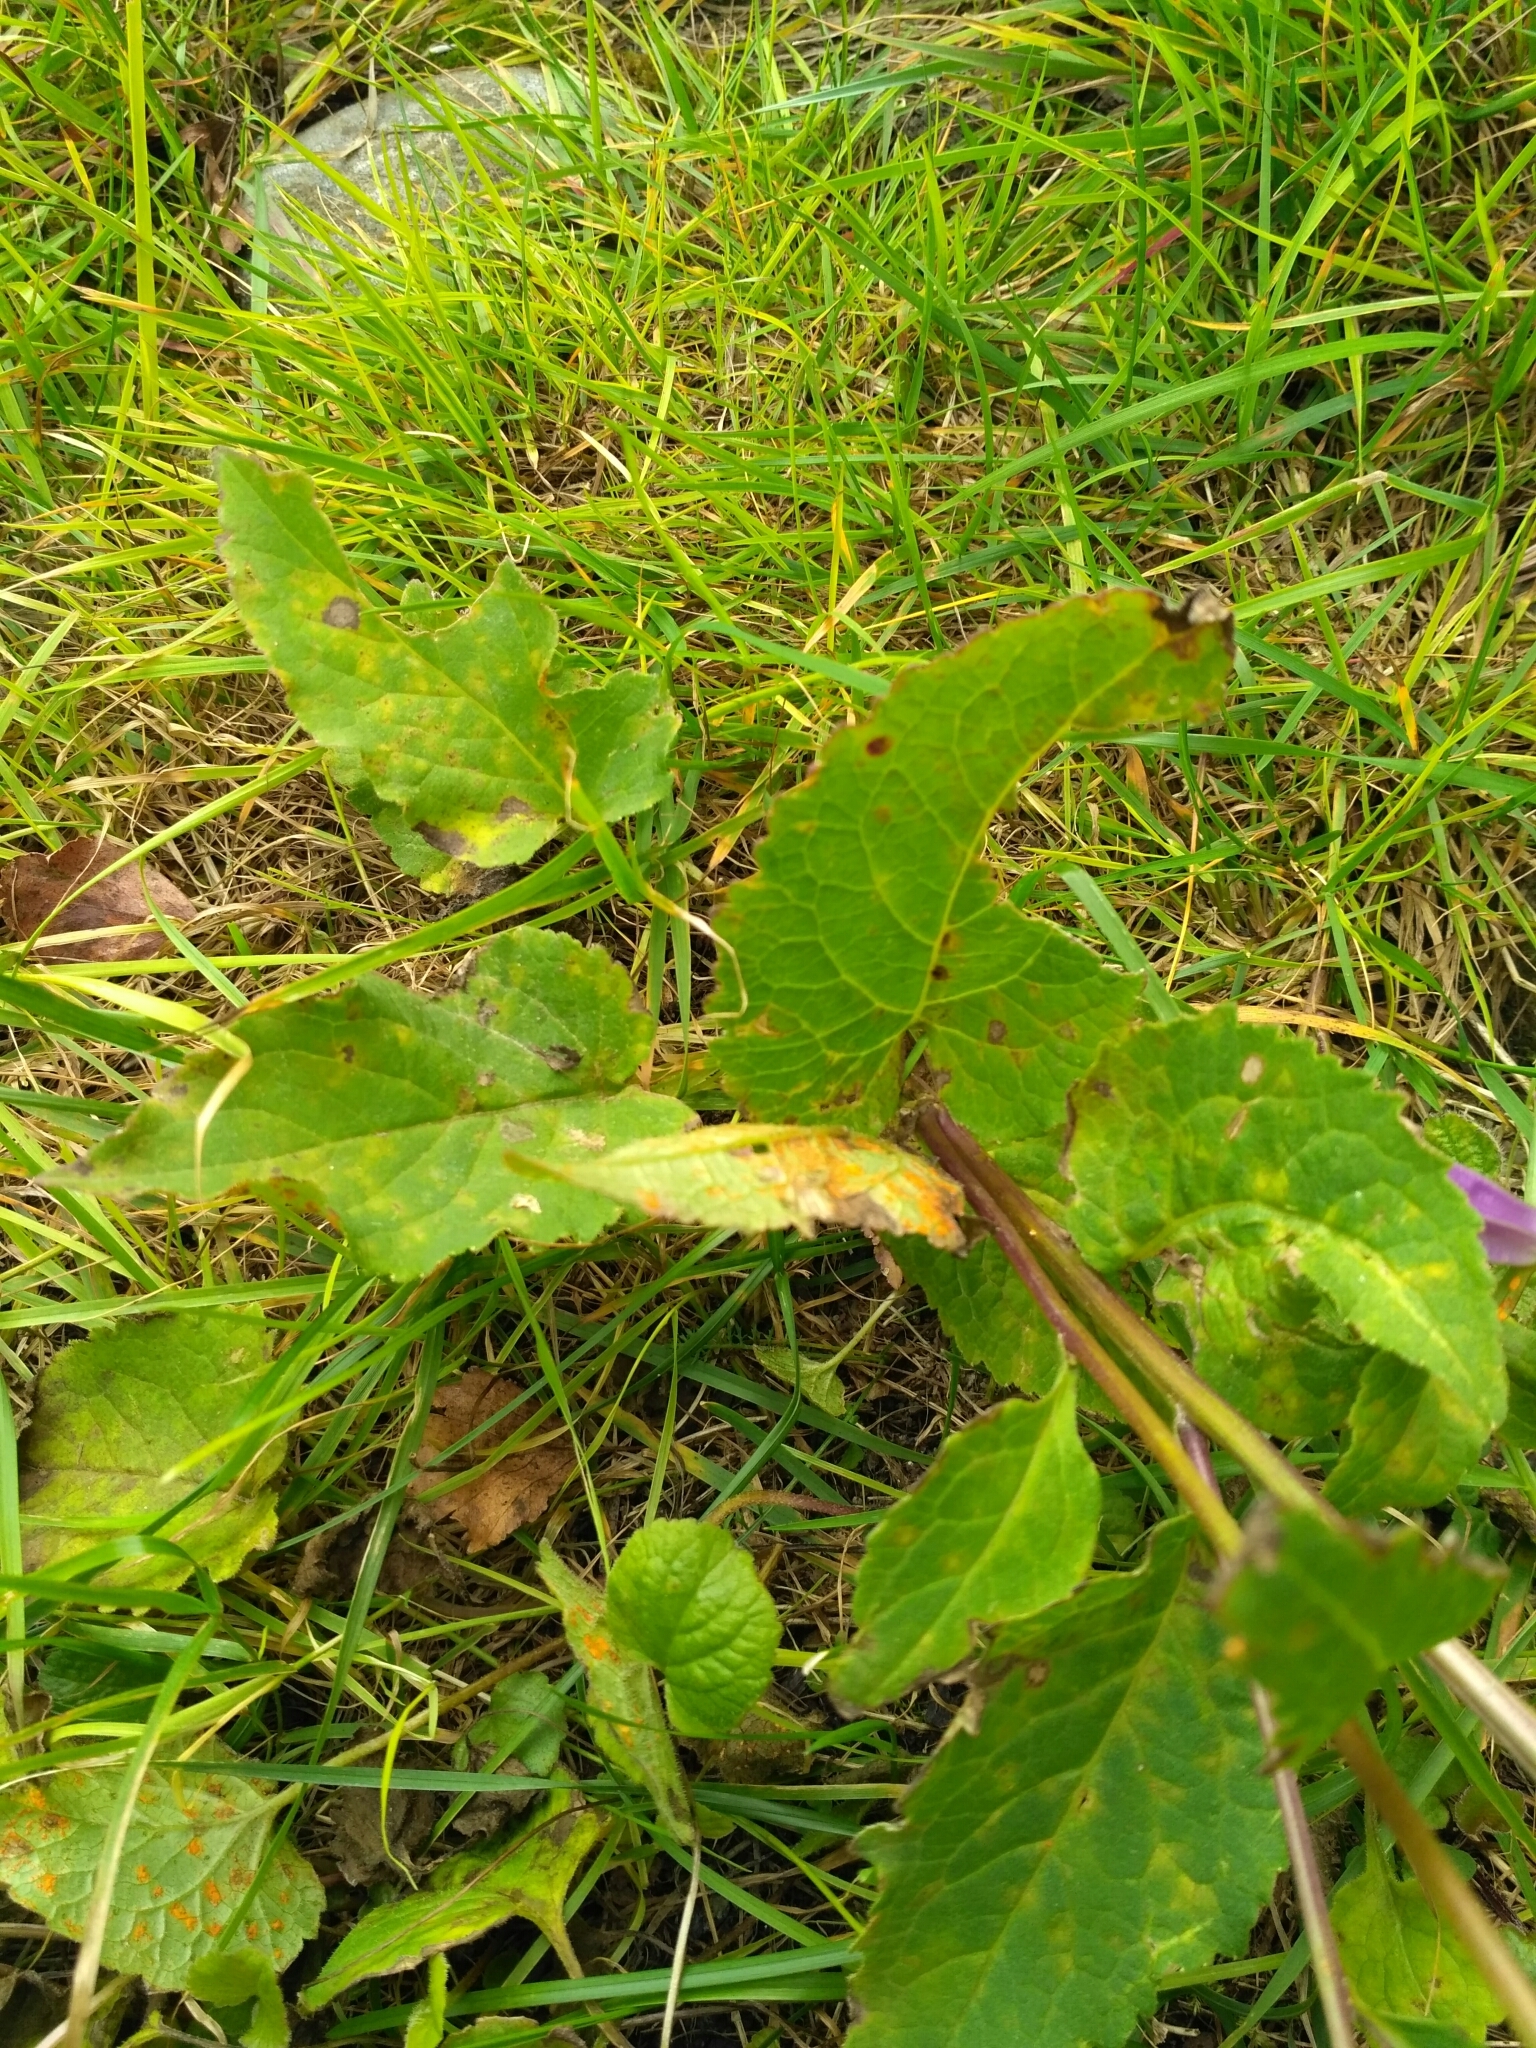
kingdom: Plantae
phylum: Tracheophyta
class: Magnoliopsida
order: Asterales
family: Campanulaceae
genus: Campanula
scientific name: Campanula rapunculoides
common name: Creeping bellflower
